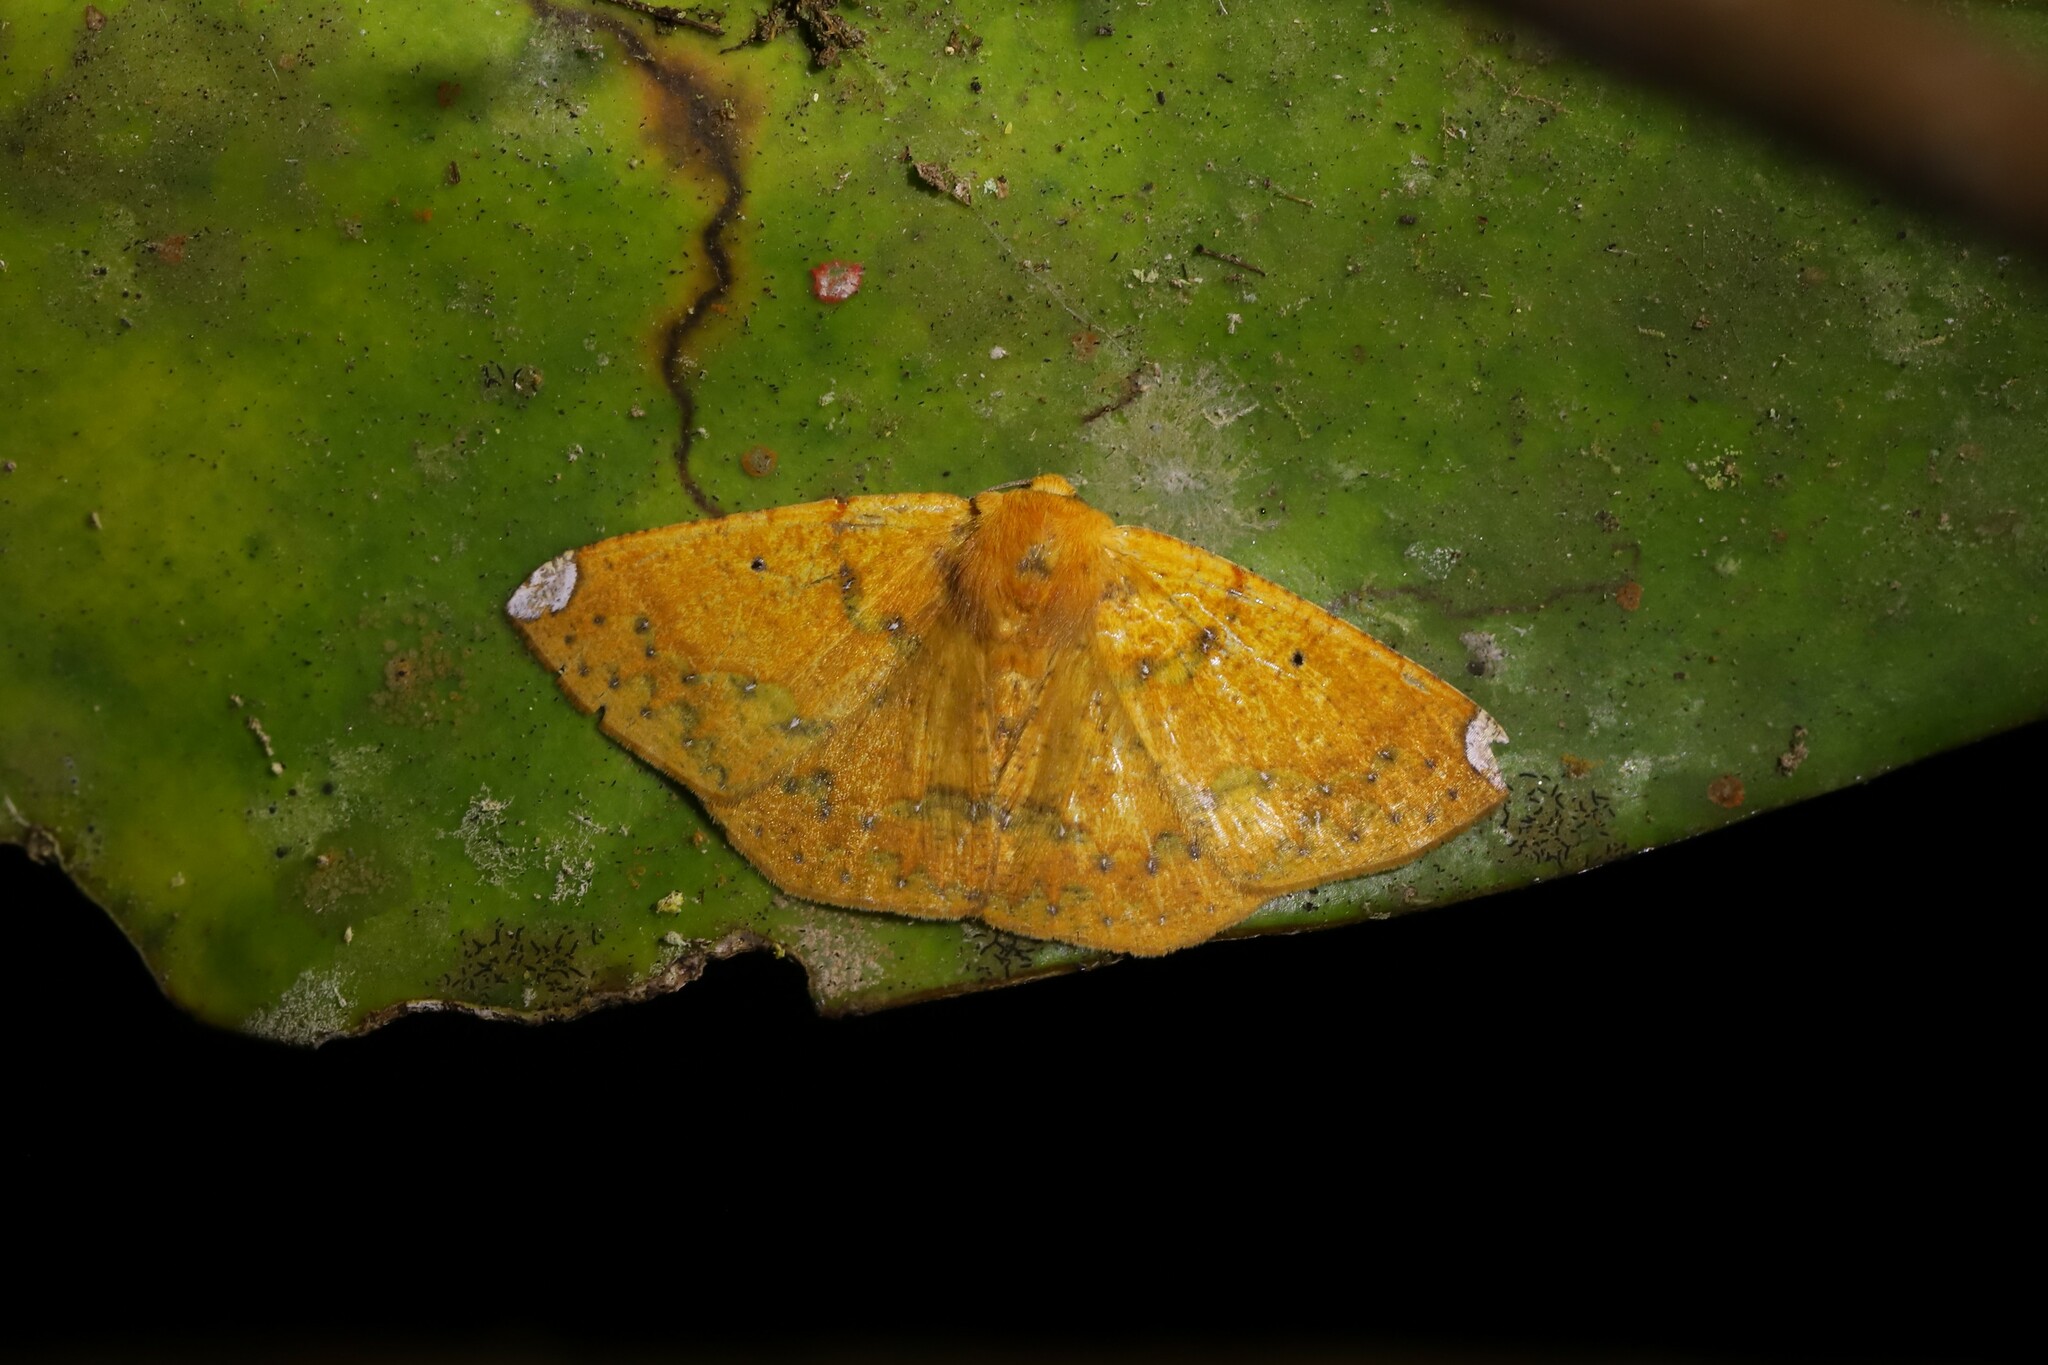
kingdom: Animalia
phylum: Arthropoda
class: Insecta
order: Lepidoptera
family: Geometridae
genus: Acrosemia
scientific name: Acrosemia vulpecularia
